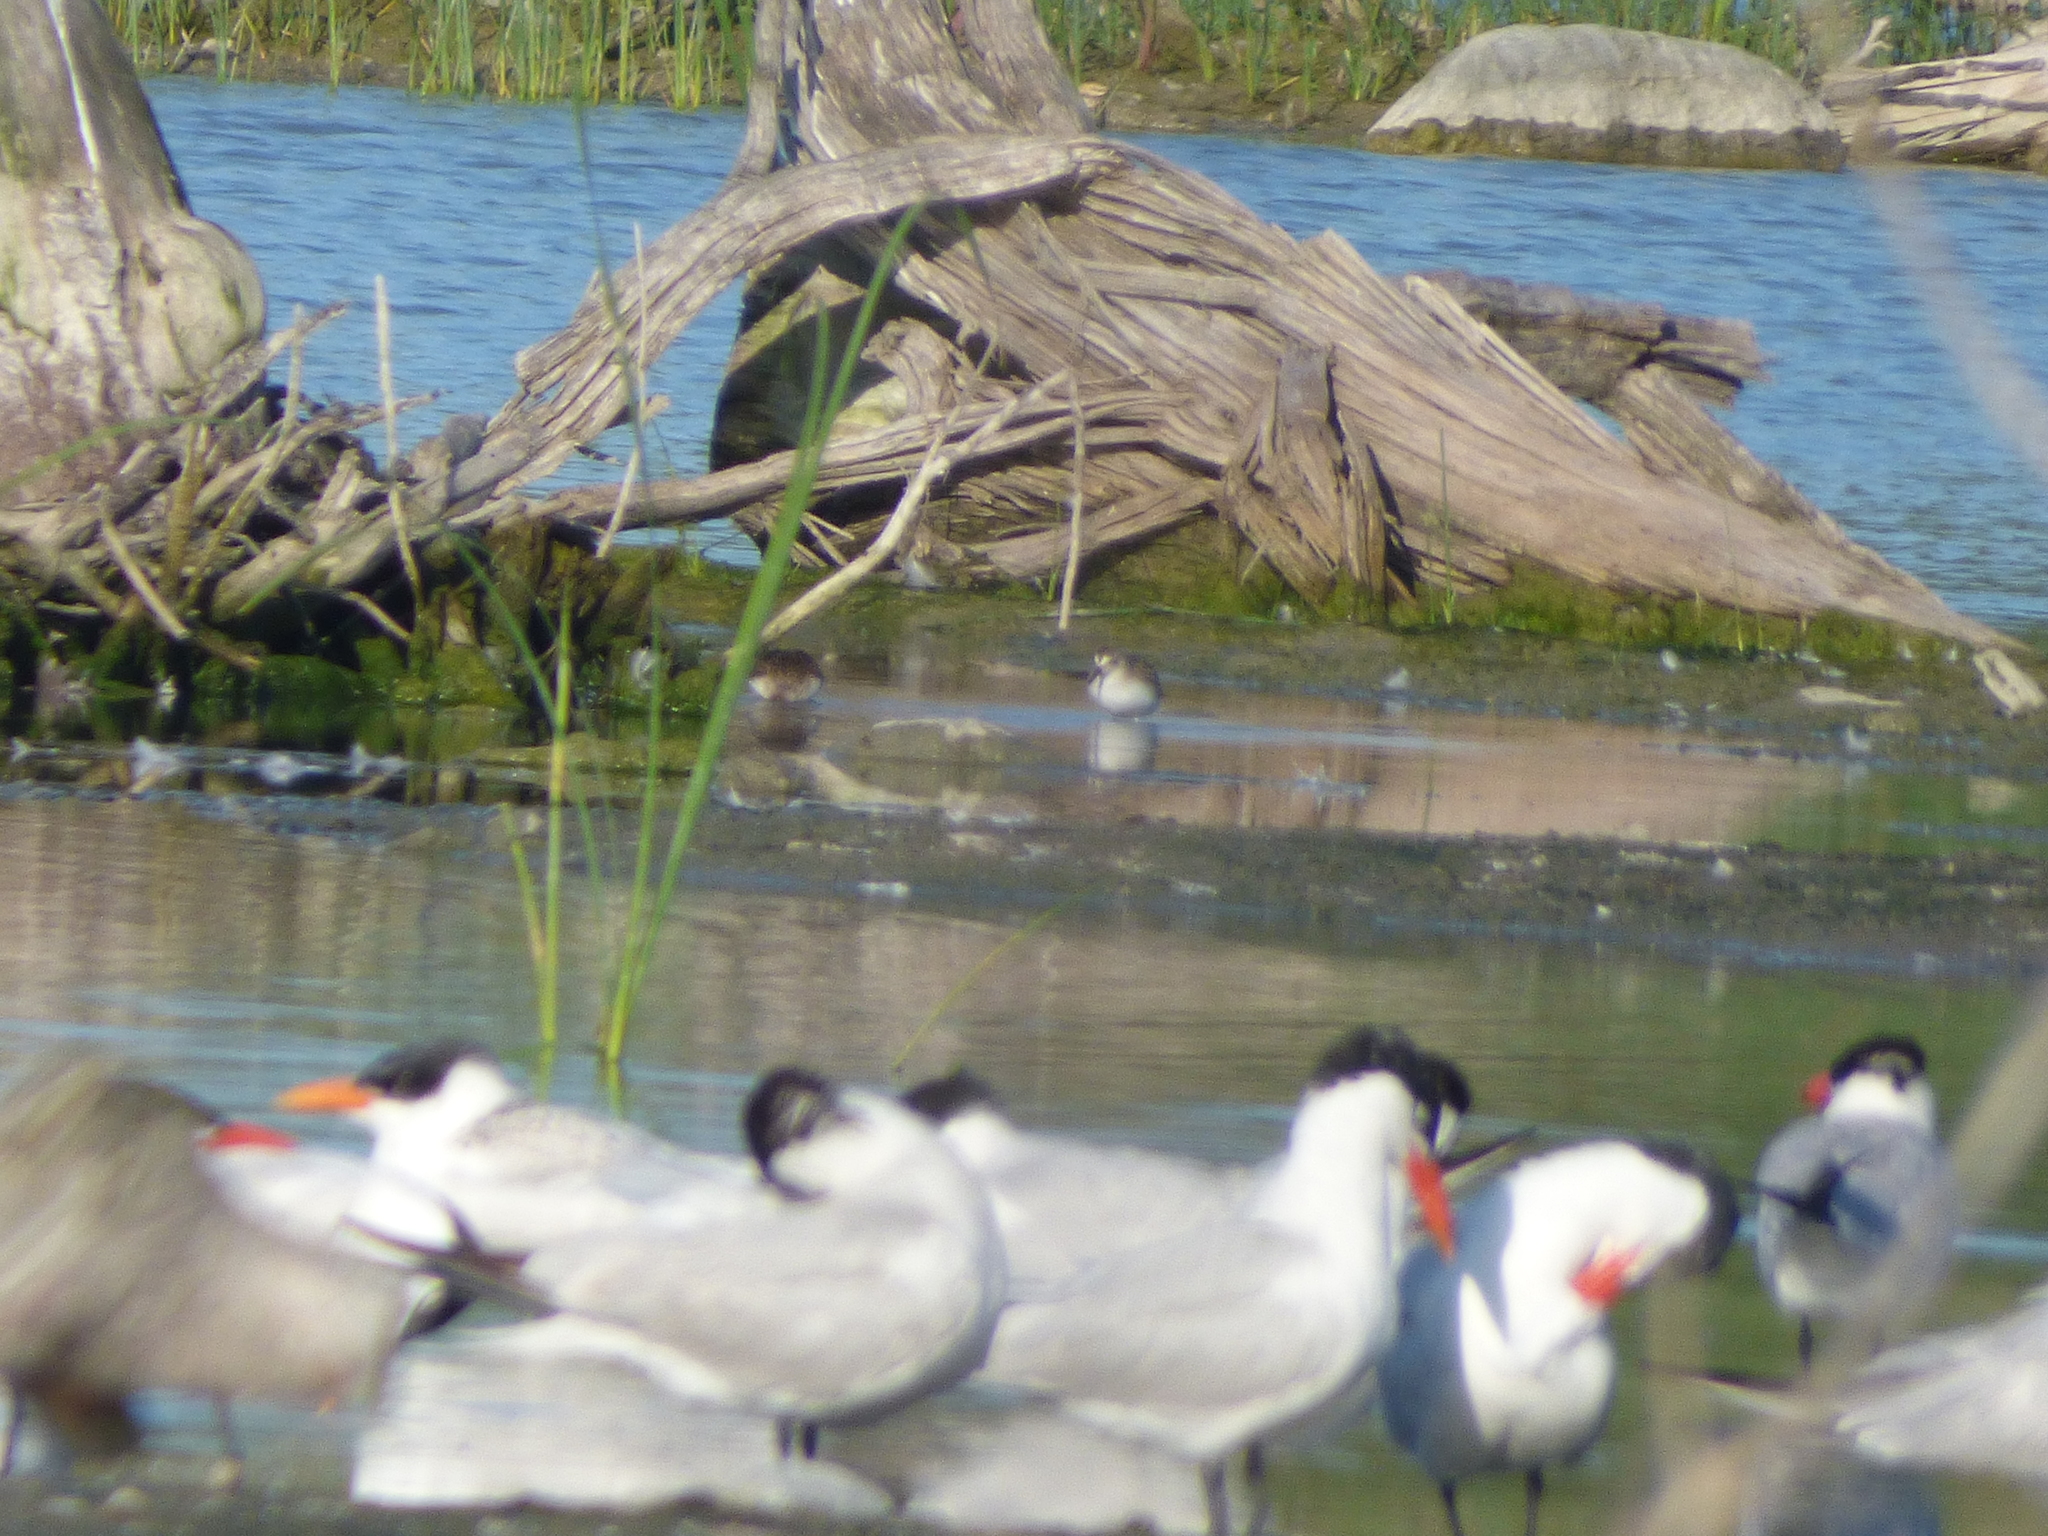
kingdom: Animalia
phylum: Chordata
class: Aves
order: Charadriiformes
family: Laridae
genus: Hydroprogne
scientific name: Hydroprogne caspia
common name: Caspian tern
